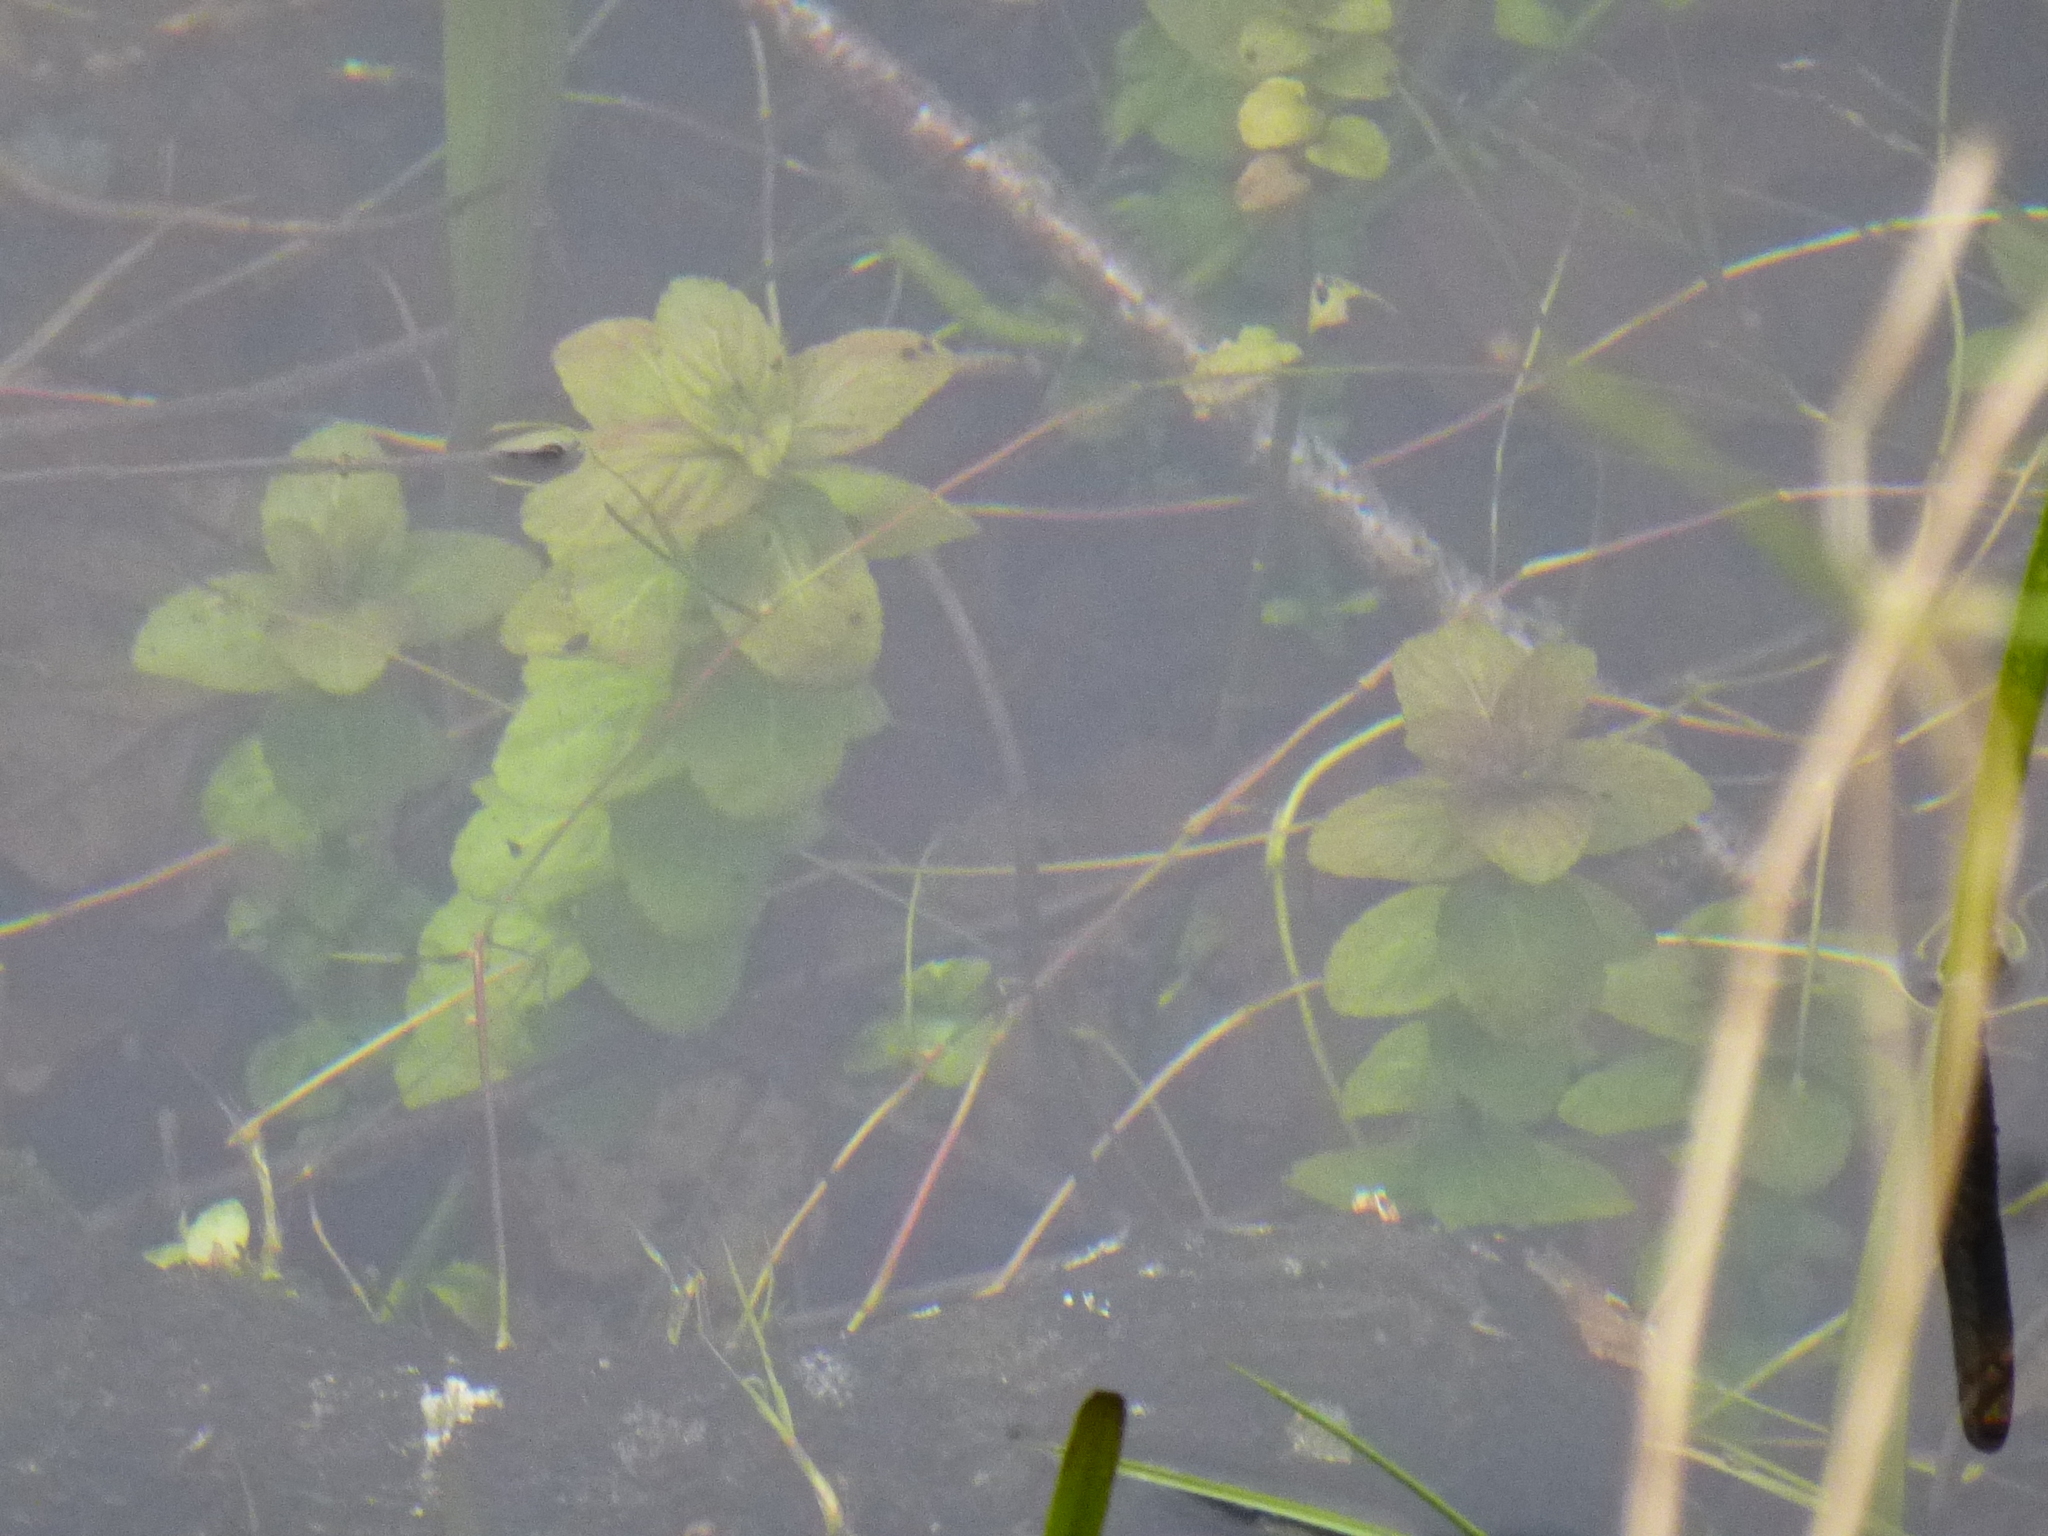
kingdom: Plantae
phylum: Tracheophyta
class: Magnoliopsida
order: Lamiales
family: Lamiaceae
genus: Mentha
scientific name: Mentha aquatica
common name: Water mint
